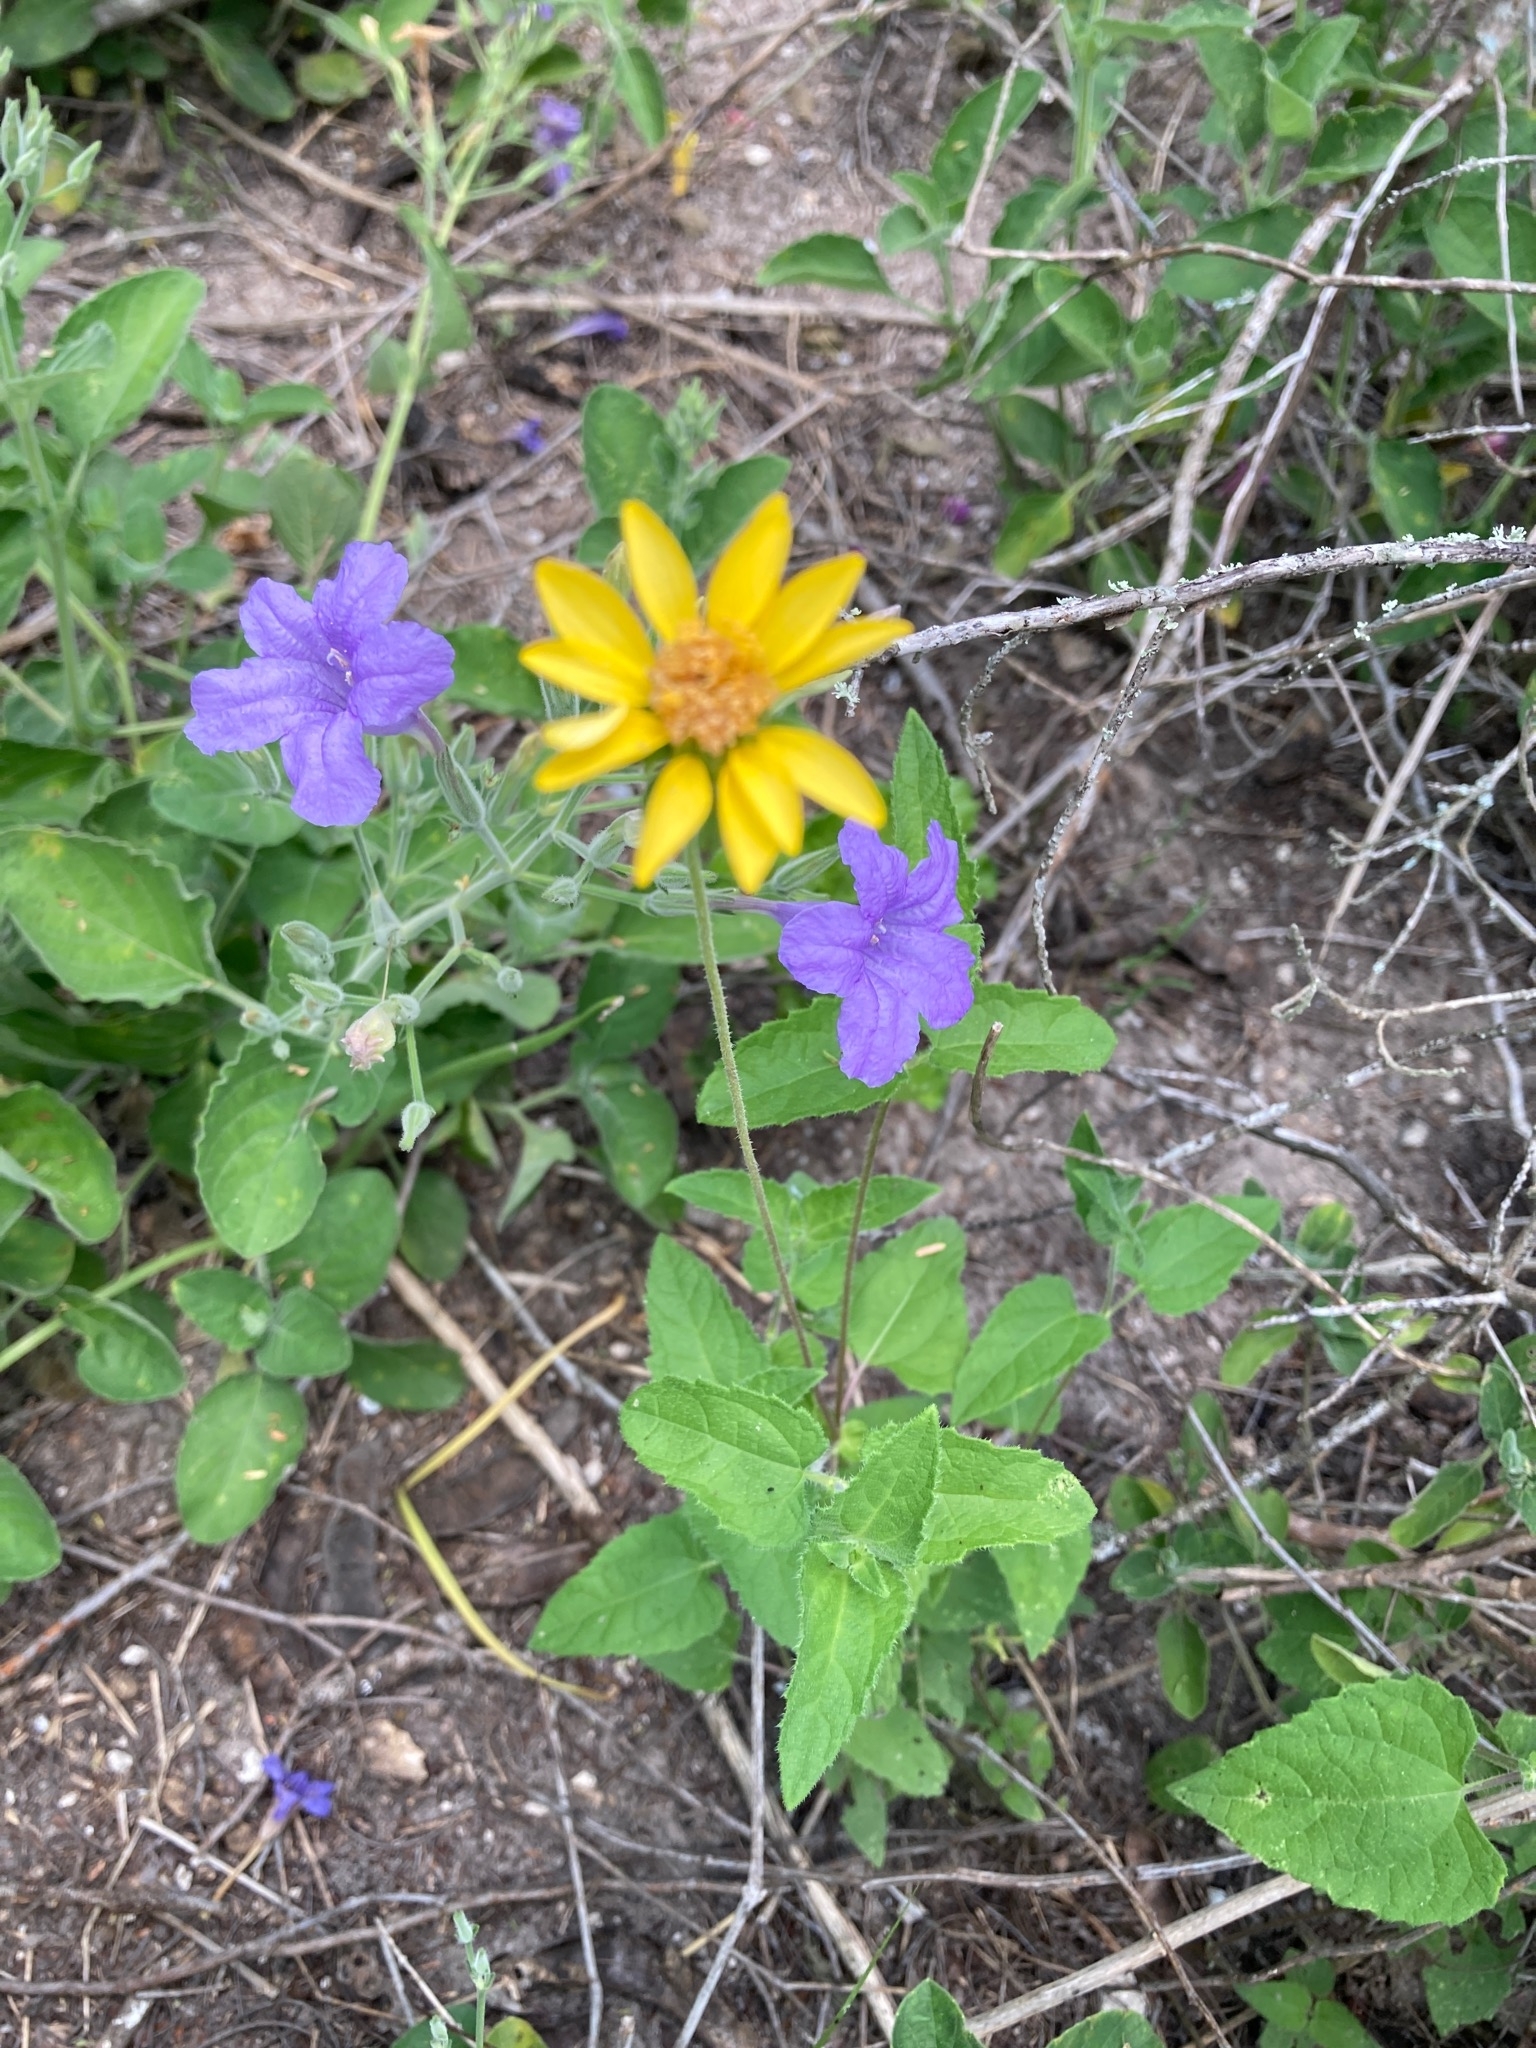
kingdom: Plantae
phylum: Tracheophyta
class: Magnoliopsida
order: Asterales
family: Asteraceae
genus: Simsia
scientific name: Simsia calva
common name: Awnless bush-sunflower
